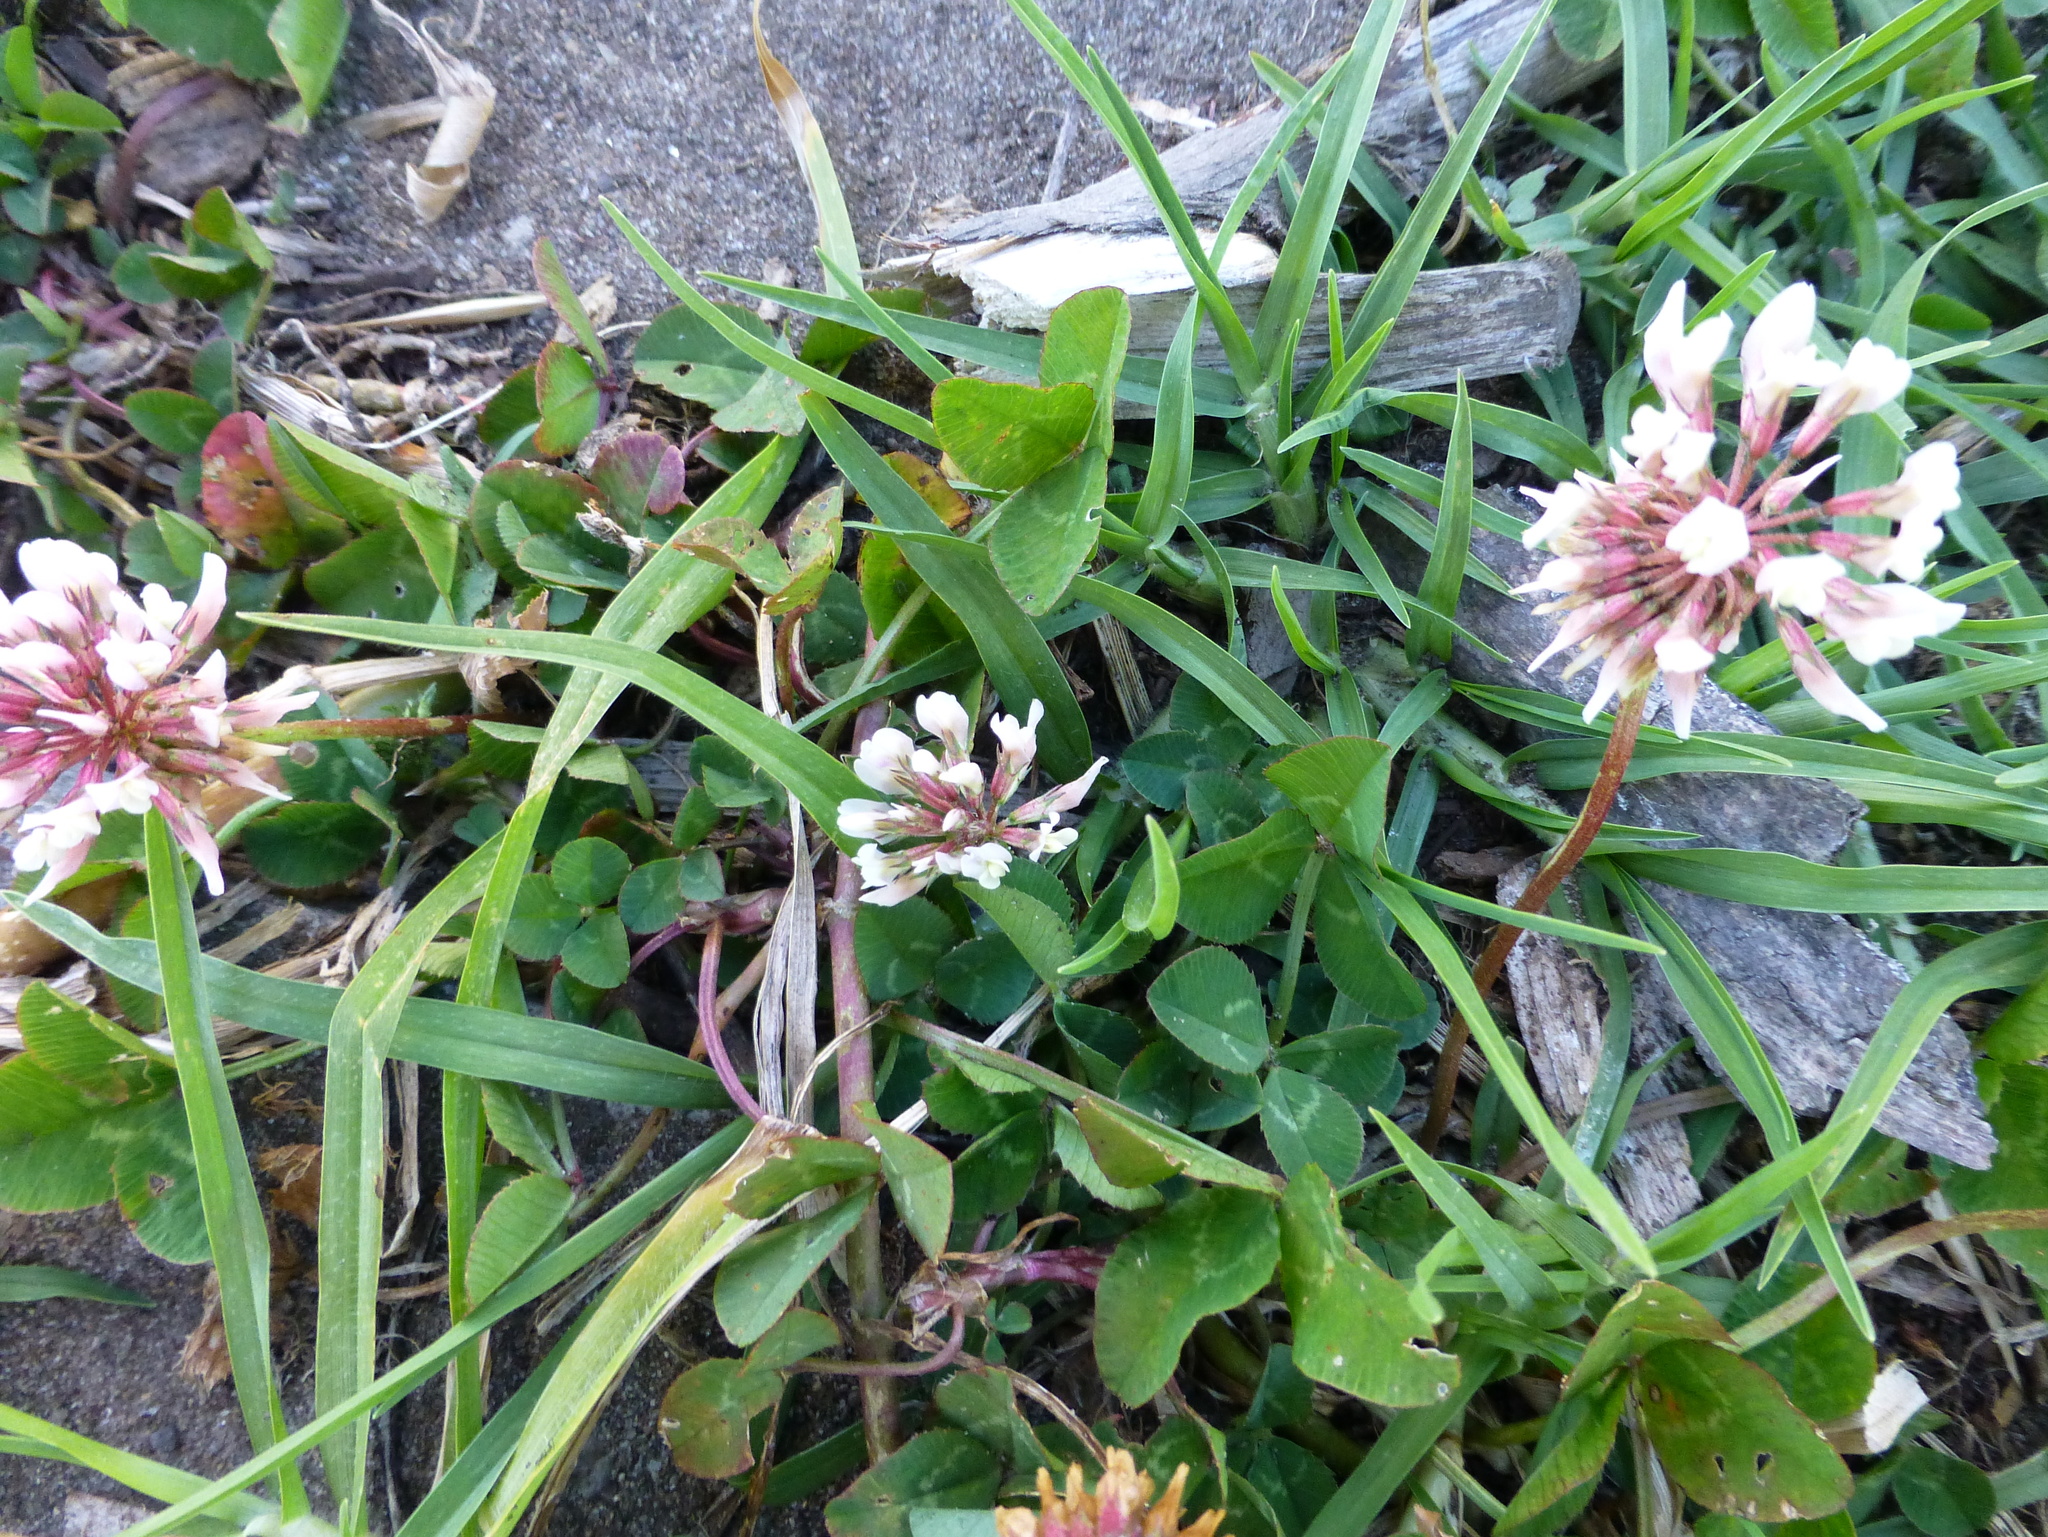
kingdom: Plantae
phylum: Tracheophyta
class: Magnoliopsida
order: Fabales
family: Fabaceae
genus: Trifolium
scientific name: Trifolium repens
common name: White clover
